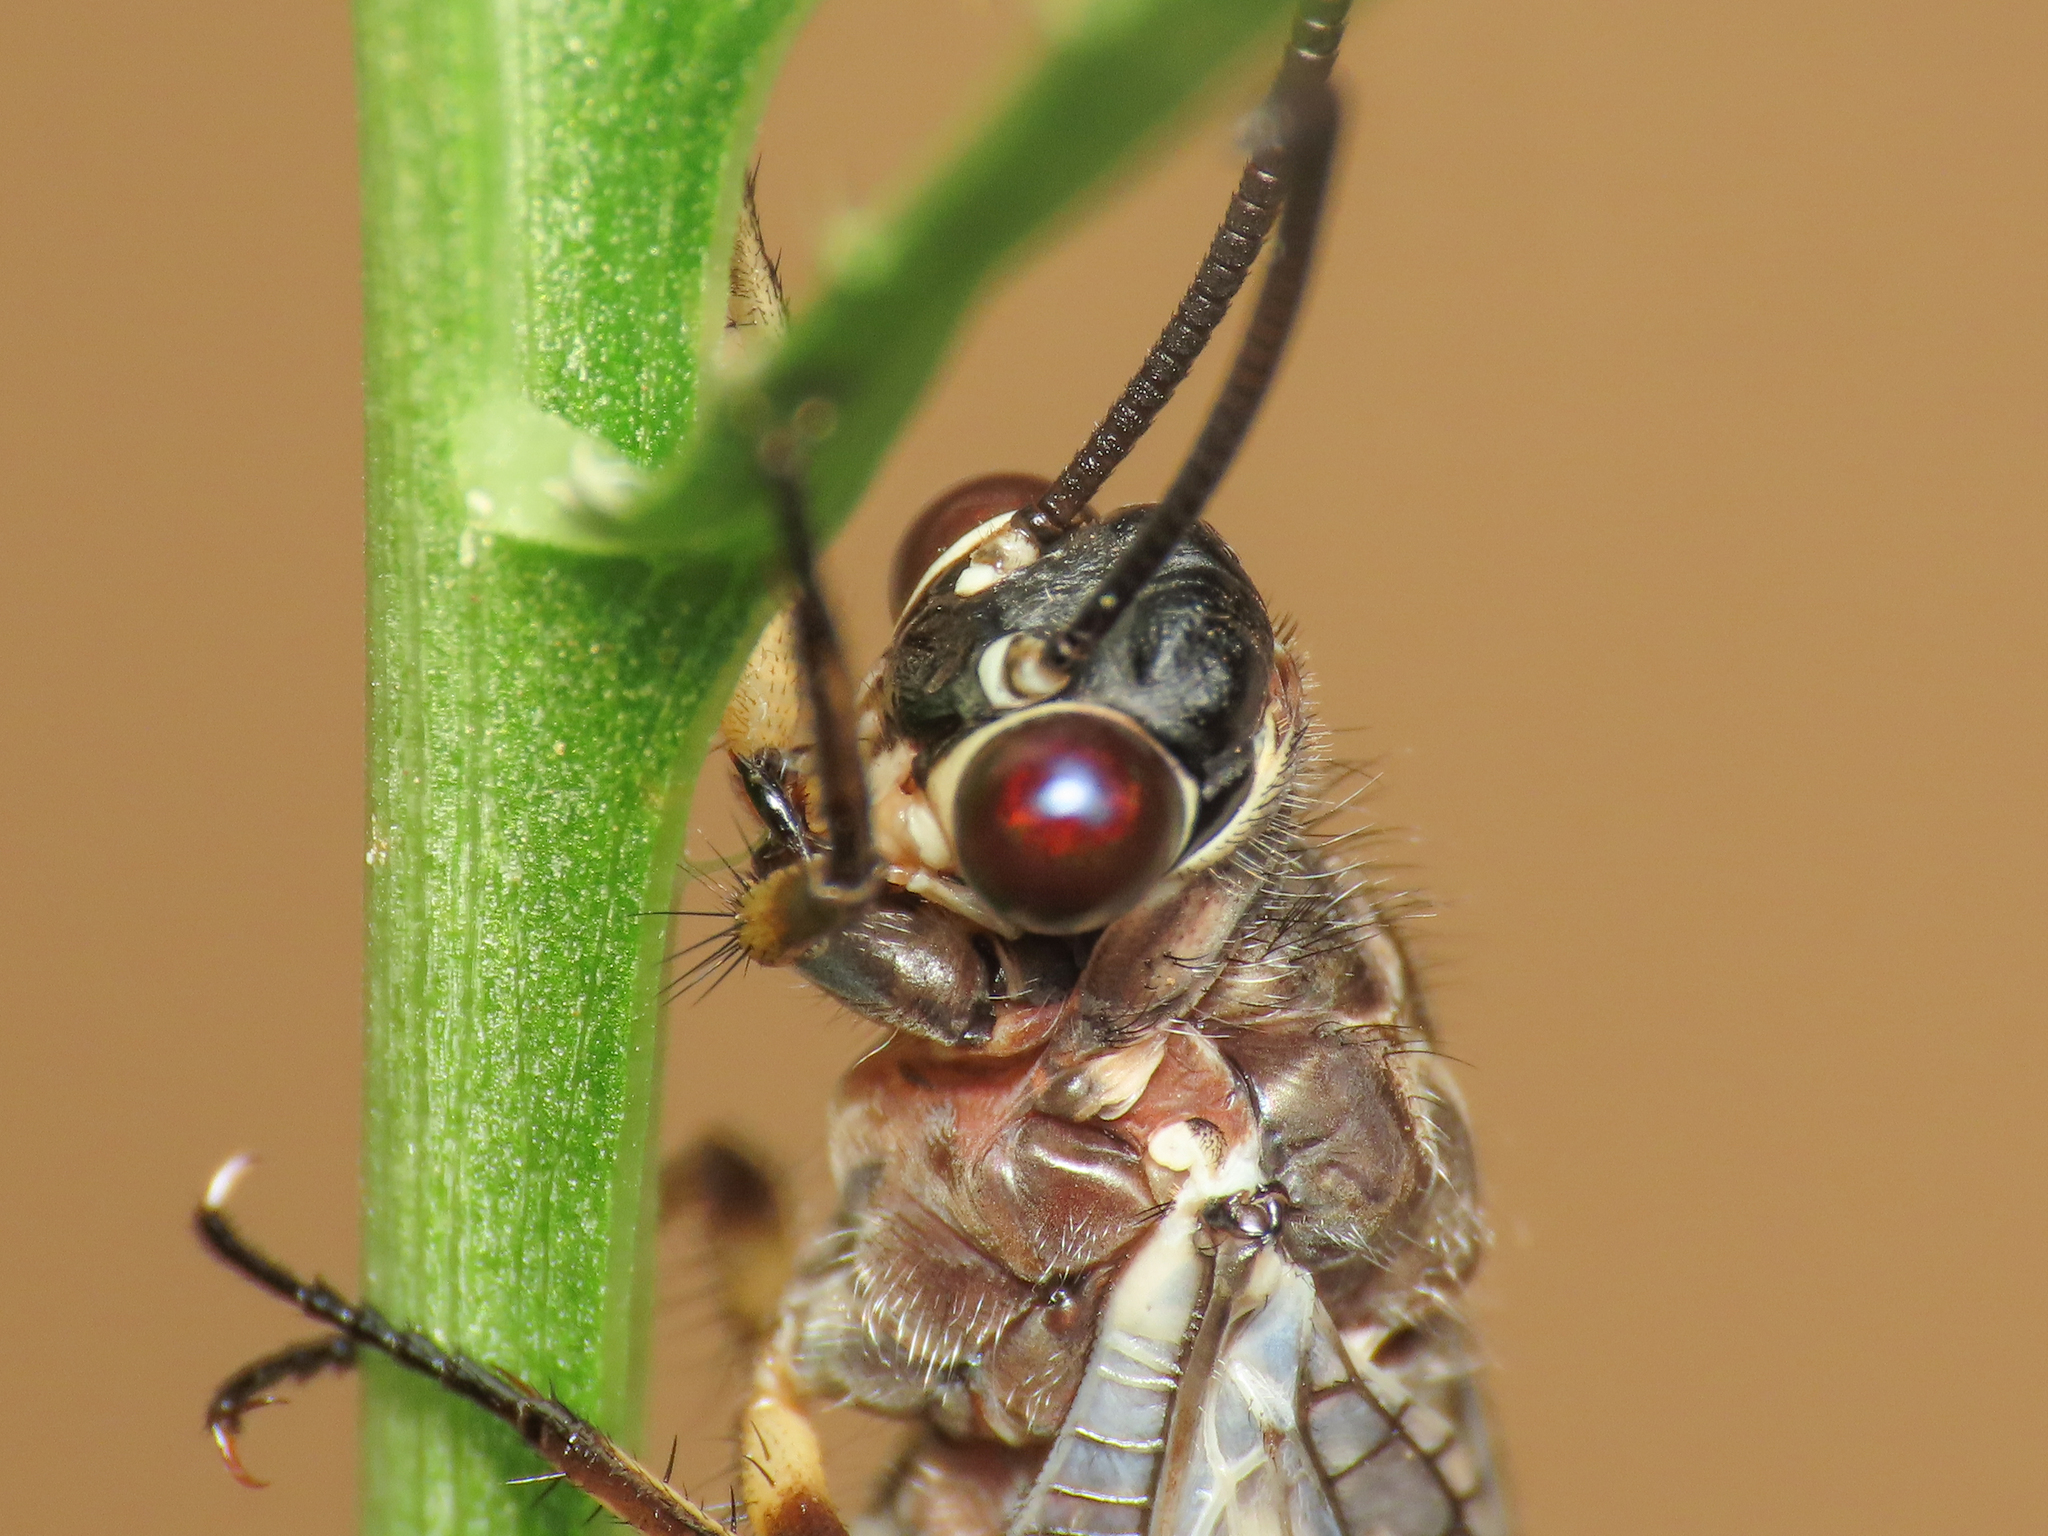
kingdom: Animalia
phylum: Arthropoda
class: Insecta
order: Neuroptera
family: Myrmeleontidae
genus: Myrmeleon
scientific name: Myrmeleon formicarius
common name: Ant-lion
